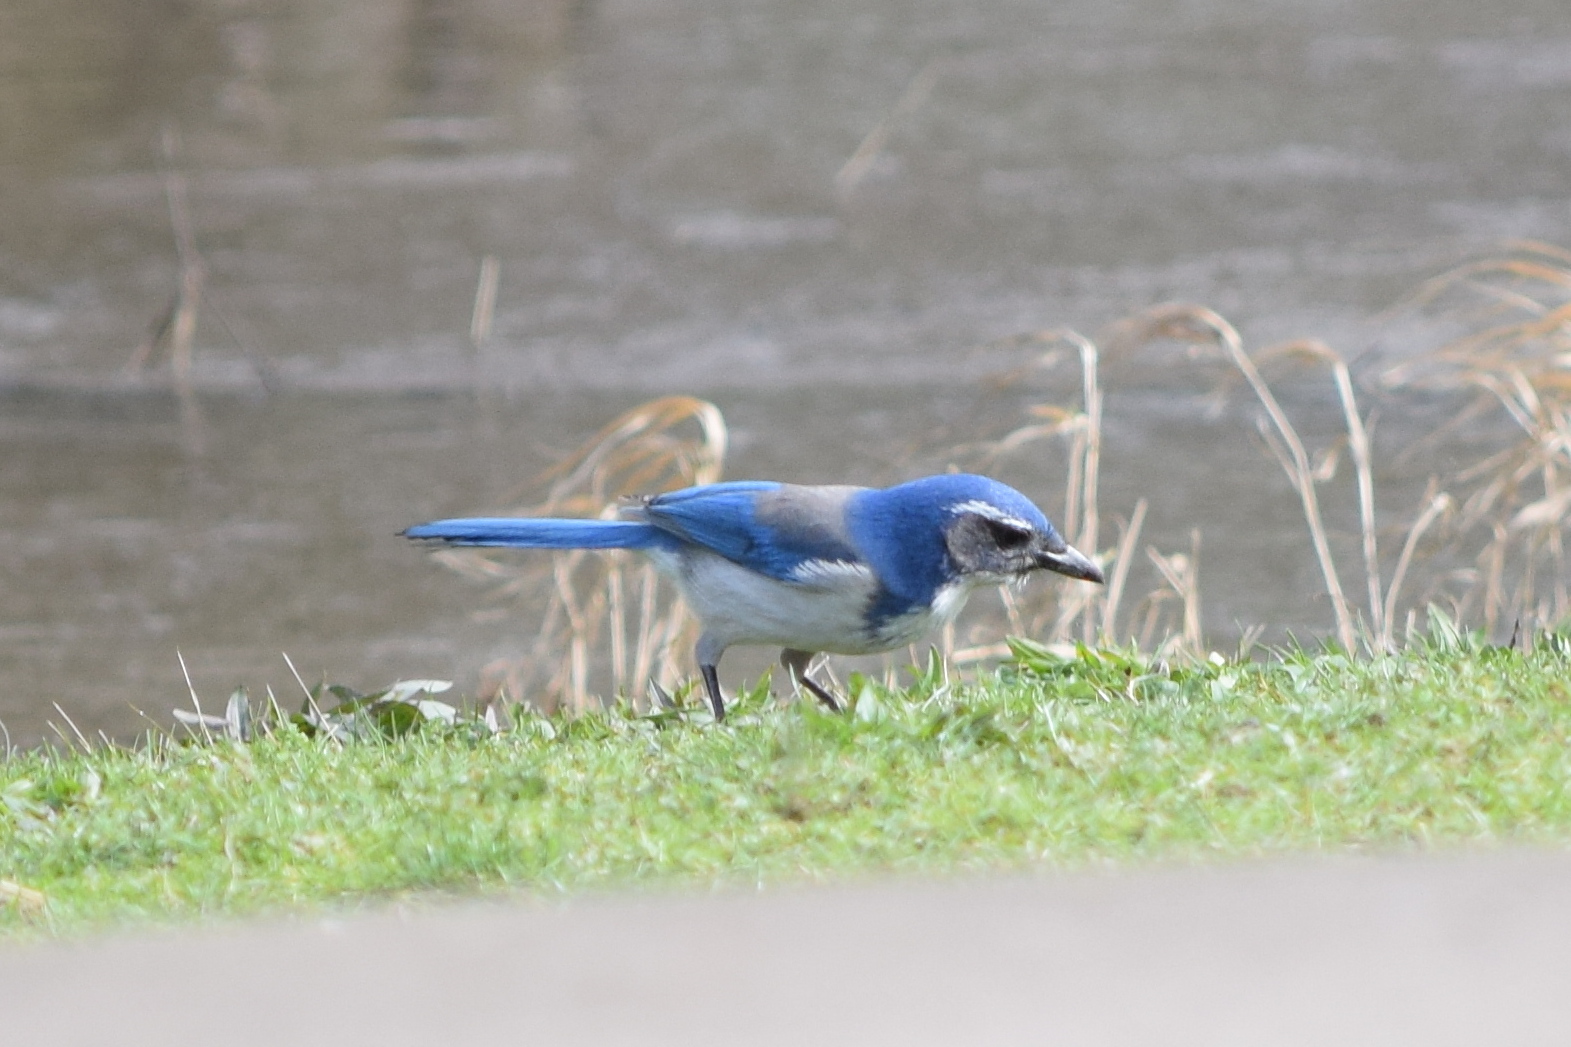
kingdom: Animalia
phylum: Chordata
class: Aves
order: Passeriformes
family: Corvidae
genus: Aphelocoma
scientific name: Aphelocoma californica
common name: California scrub-jay
